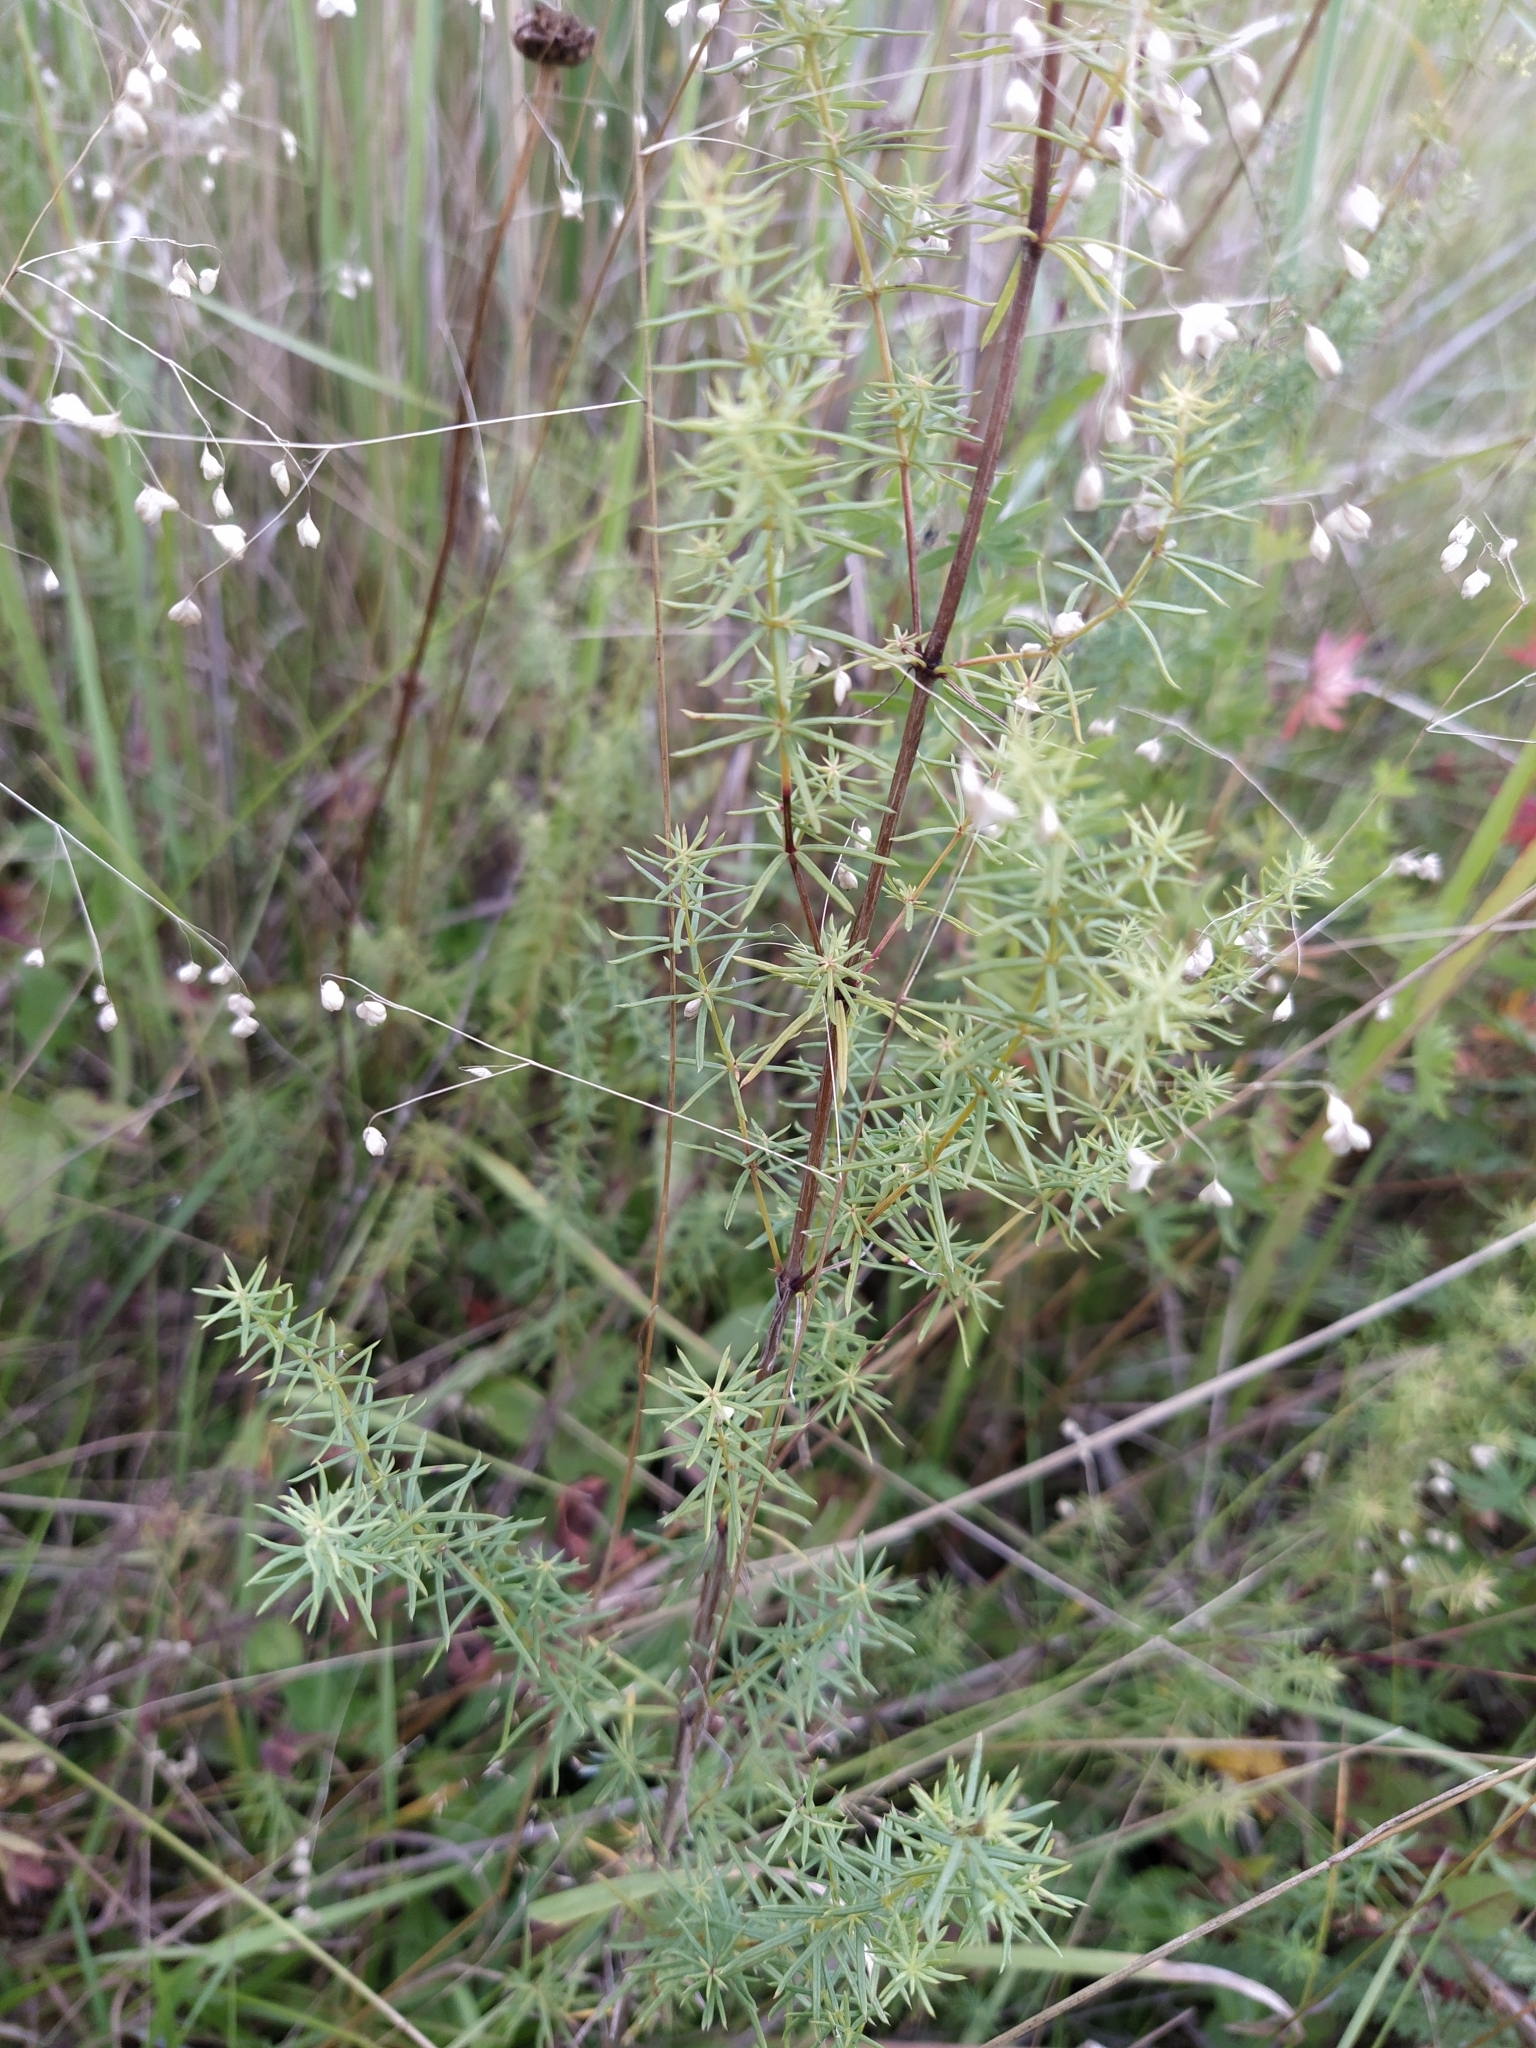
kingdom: Plantae
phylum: Tracheophyta
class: Magnoliopsida
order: Gentianales
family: Rubiaceae
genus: Galium
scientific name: Galium verum
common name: Lady's bedstraw
